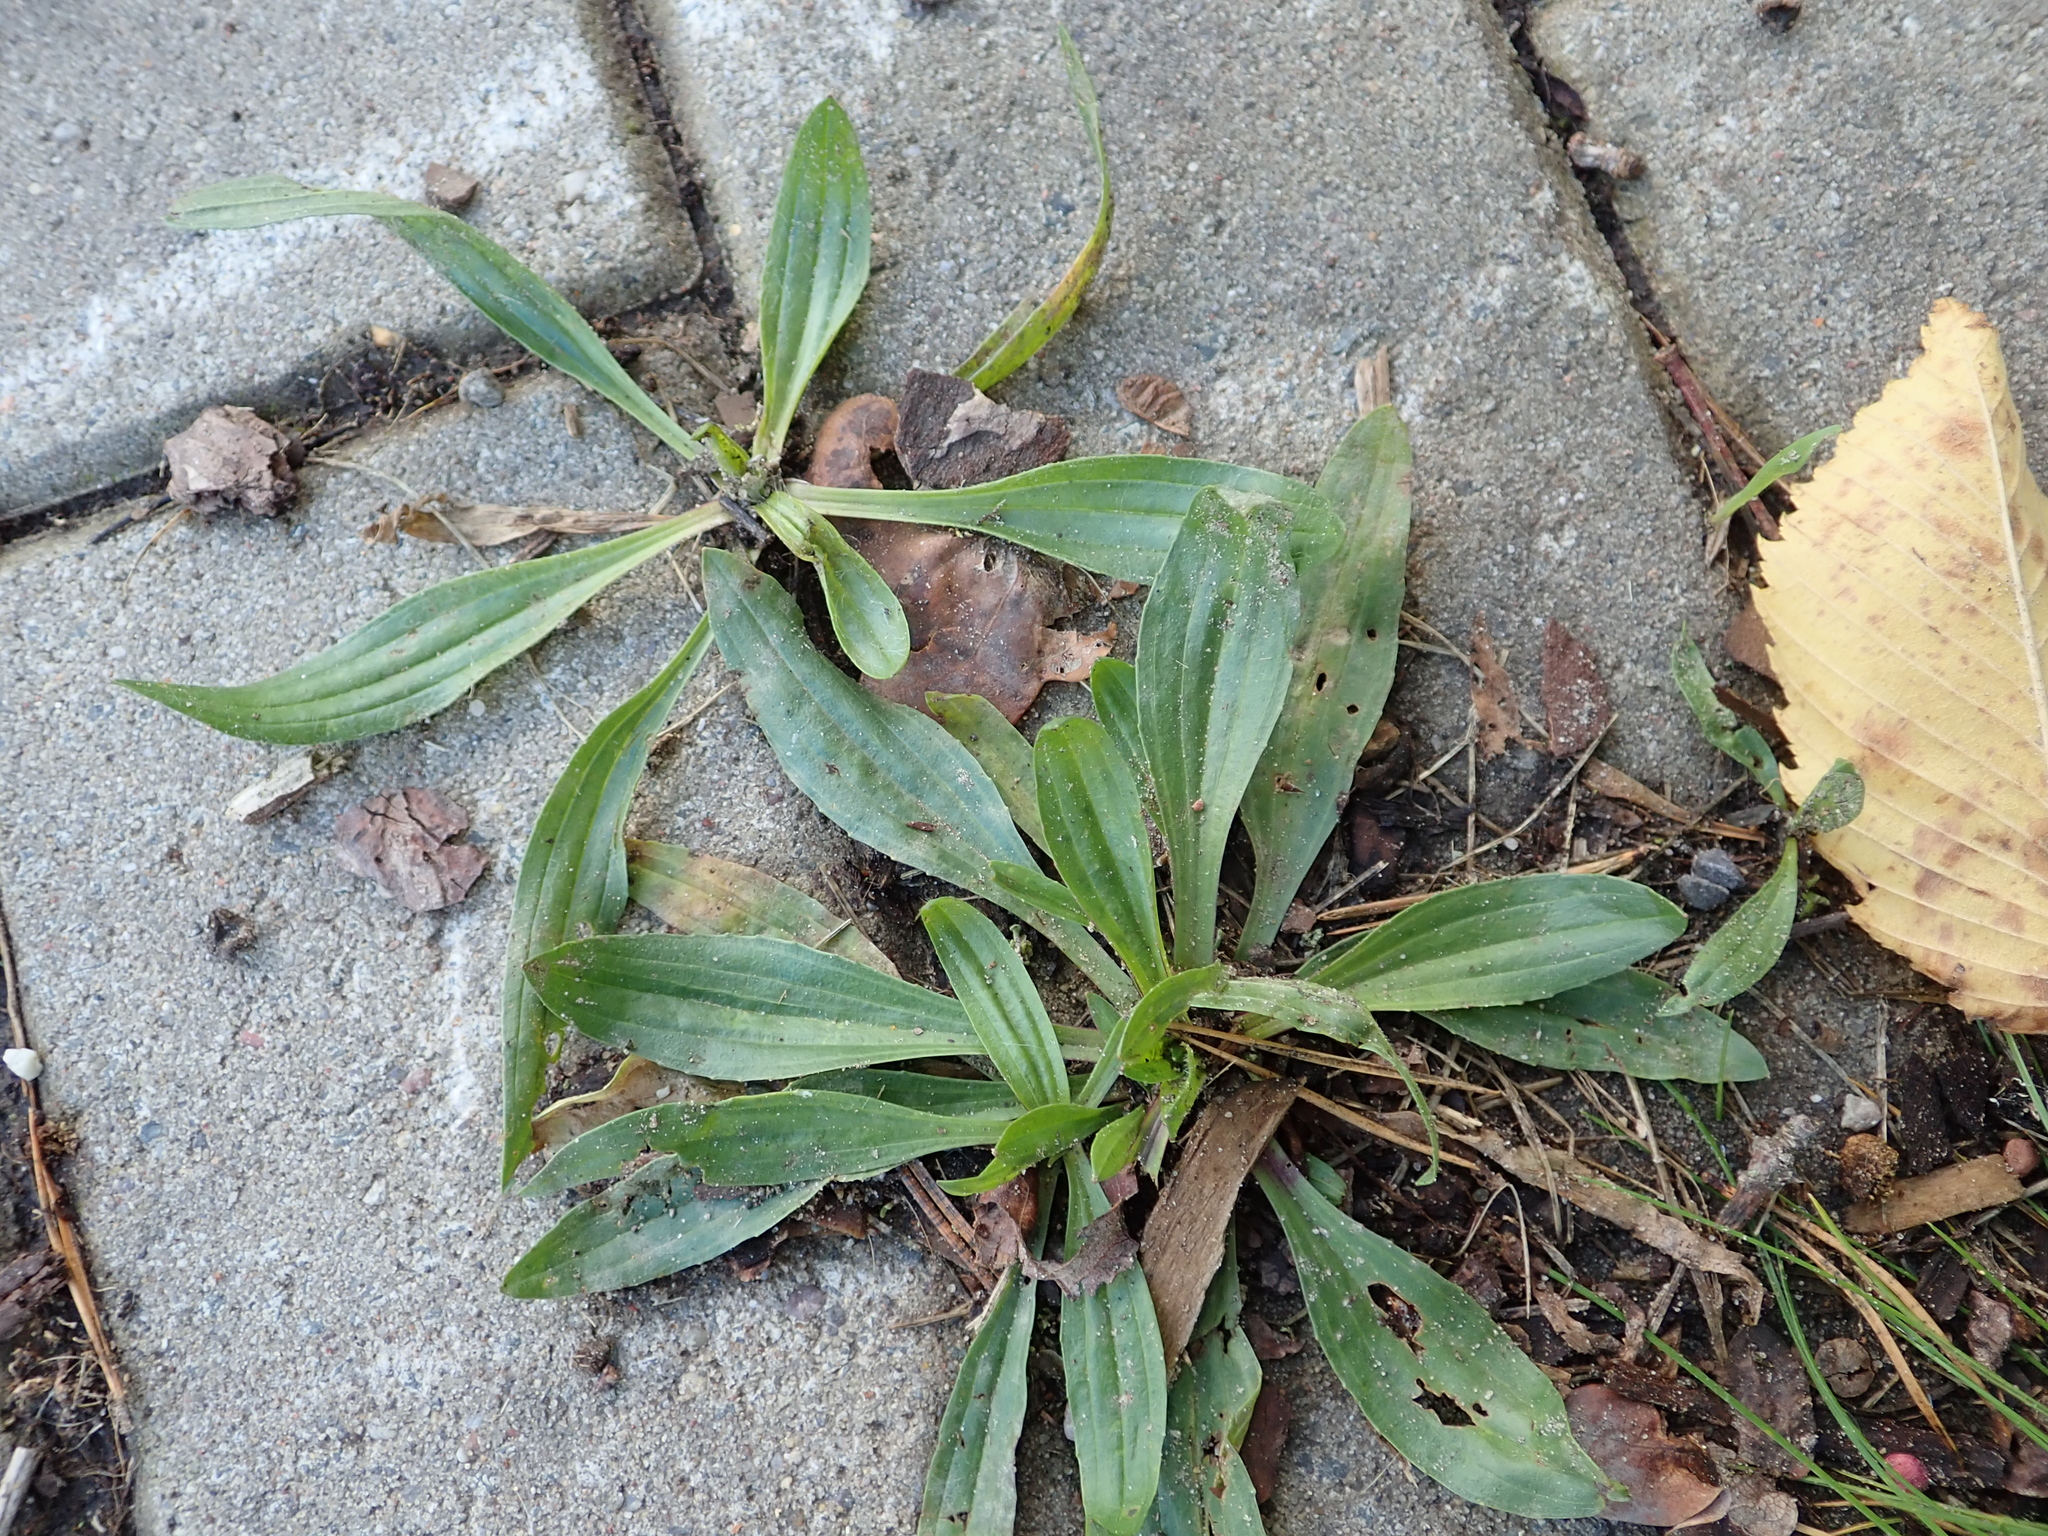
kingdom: Plantae
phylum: Tracheophyta
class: Magnoliopsida
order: Lamiales
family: Plantaginaceae
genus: Plantago
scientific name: Plantago lanceolata
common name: Ribwort plantain
